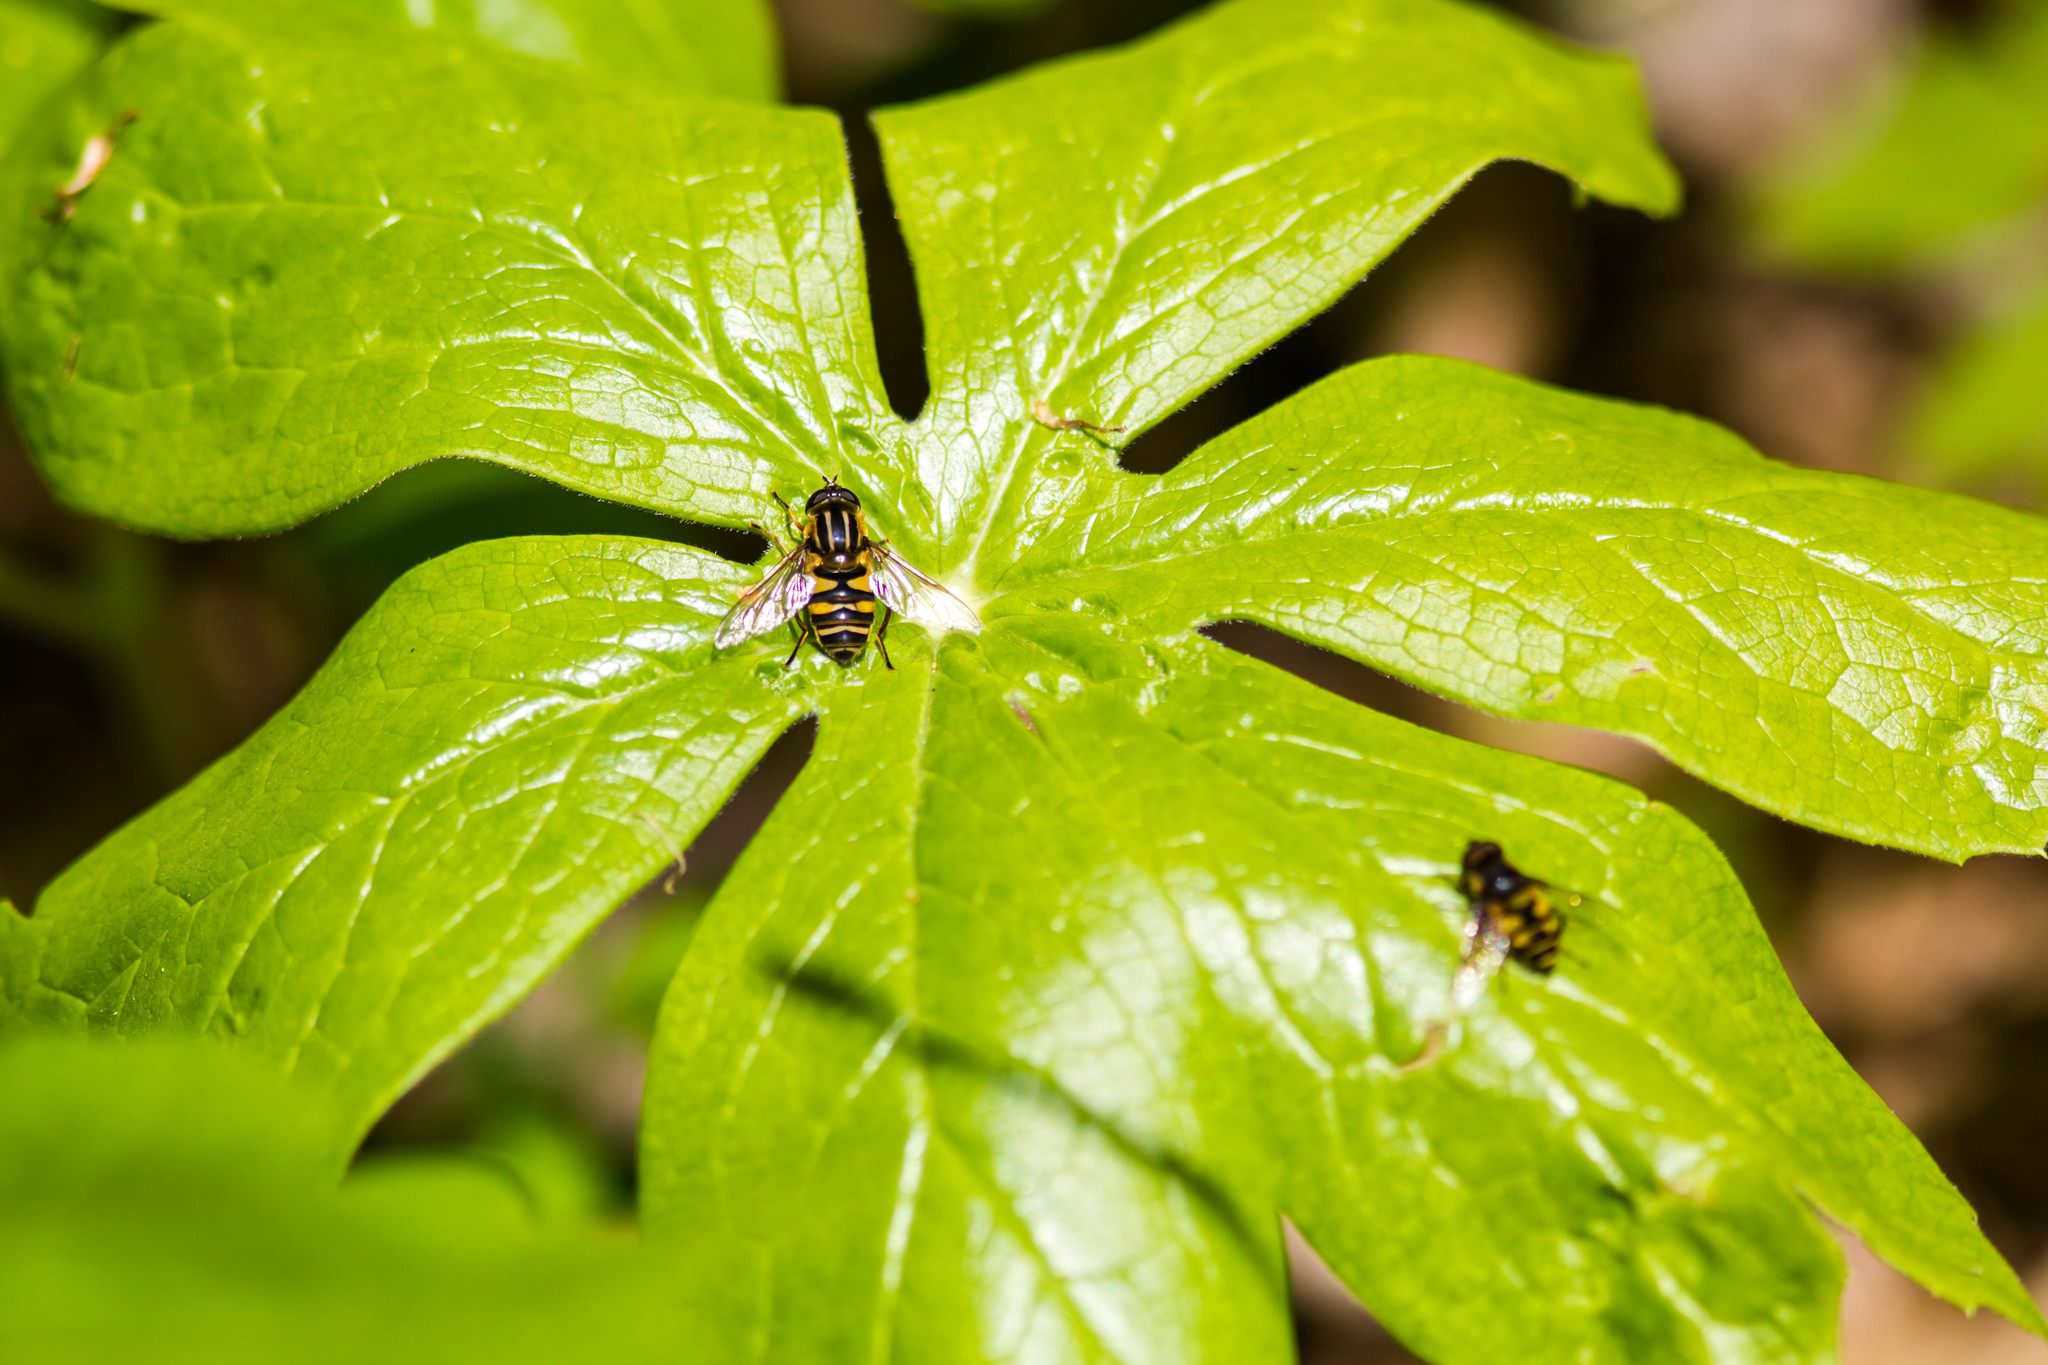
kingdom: Animalia
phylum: Arthropoda
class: Insecta
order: Diptera
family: Syrphidae
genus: Helophilus
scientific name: Helophilus fasciatus
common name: Narrow-headed marsh fly
